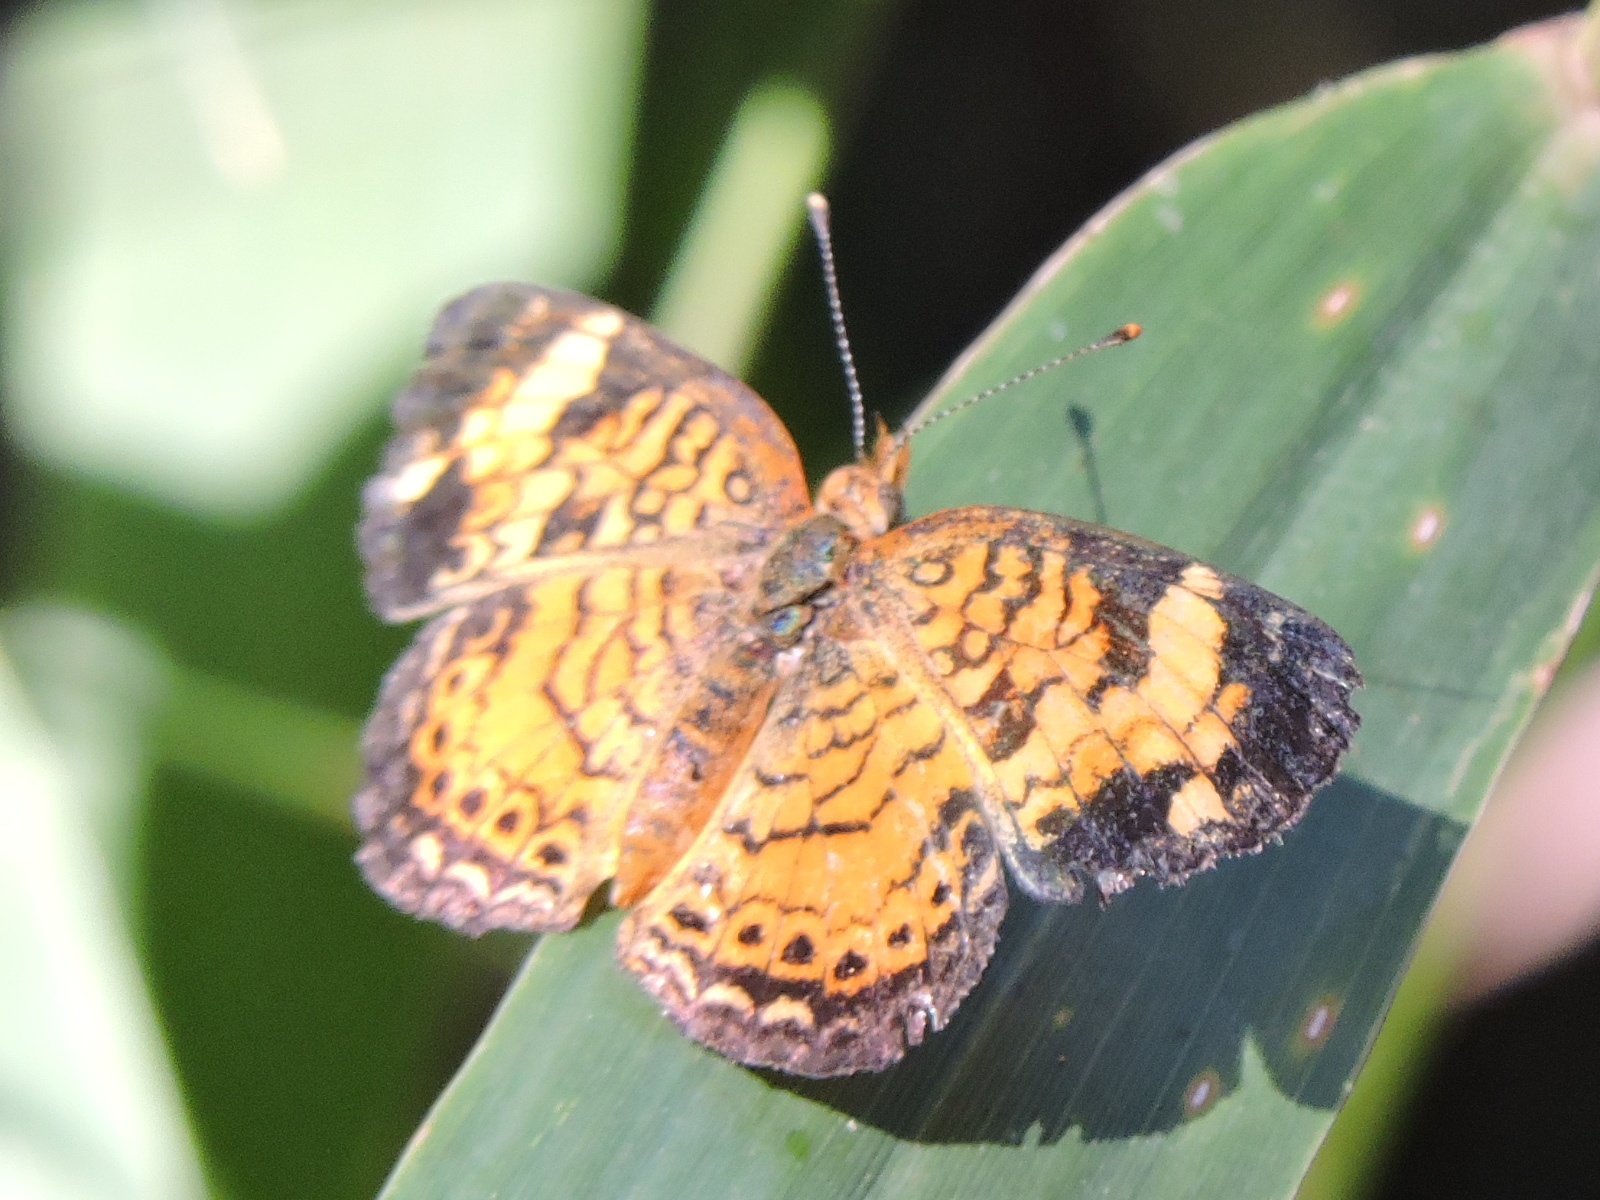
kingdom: Animalia
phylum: Arthropoda
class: Insecta
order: Lepidoptera
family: Nymphalidae
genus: Phyciodes
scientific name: Phyciodes tharos
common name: Pearl crescent
